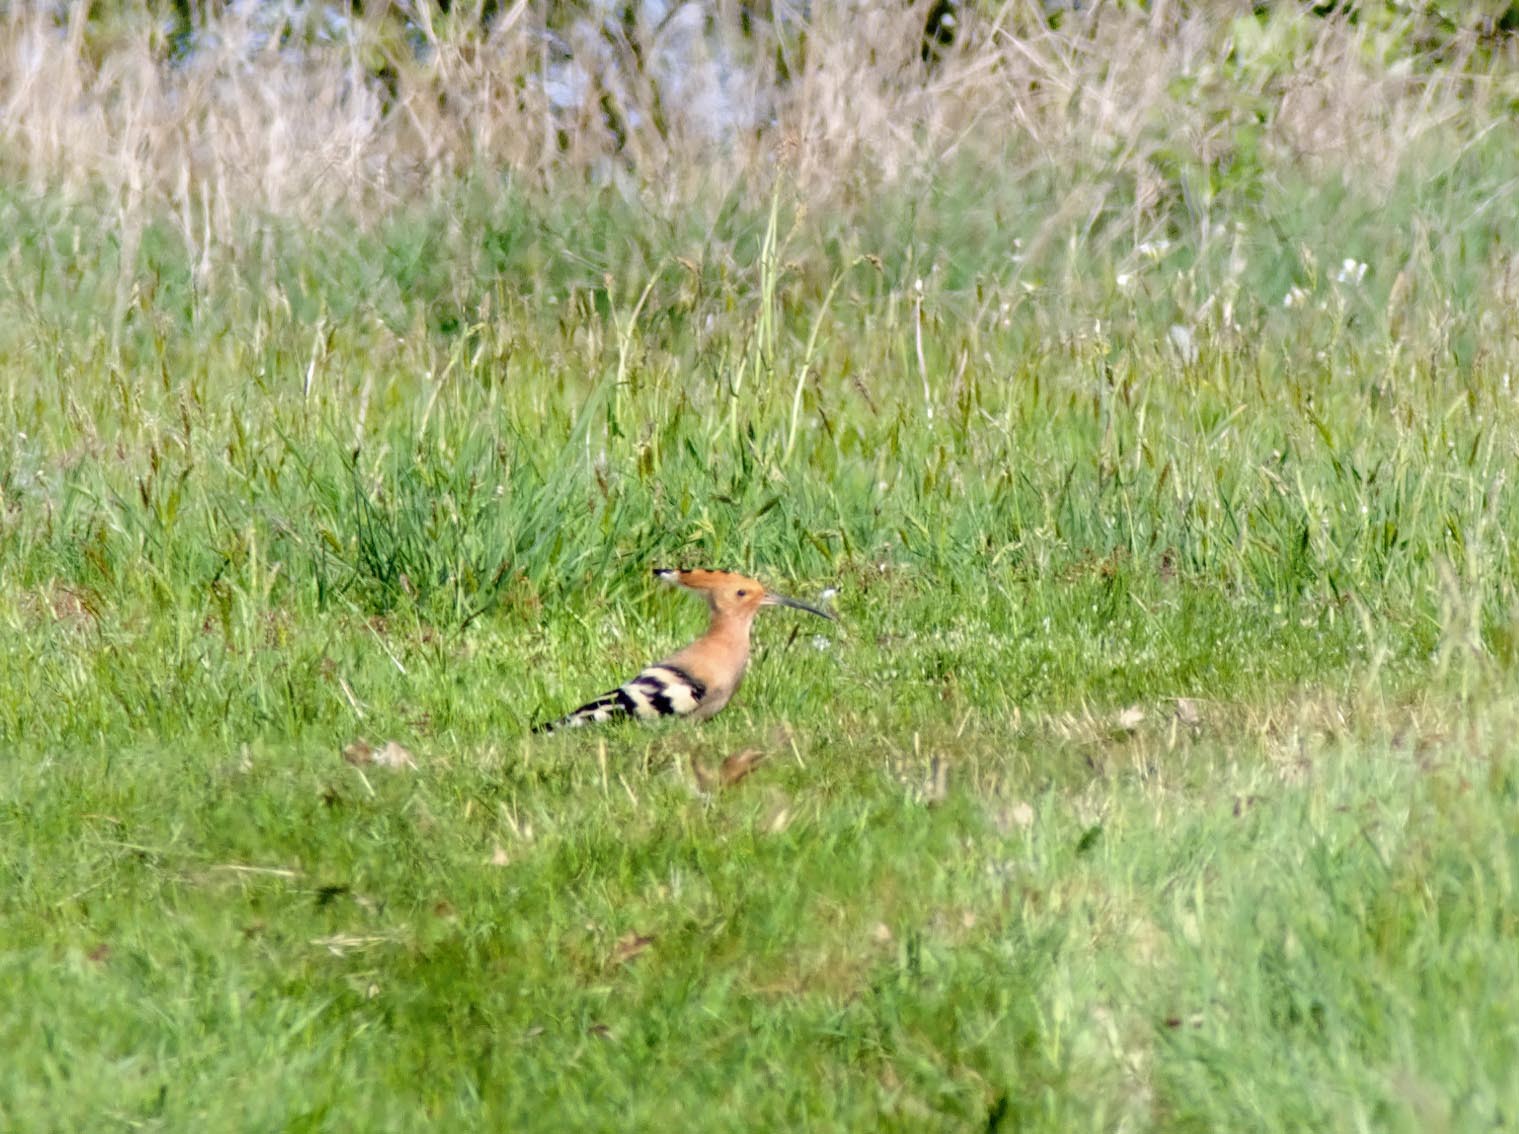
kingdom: Animalia
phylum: Chordata
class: Aves
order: Bucerotiformes
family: Upupidae
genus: Upupa
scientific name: Upupa epops
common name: Eurasian hoopoe
